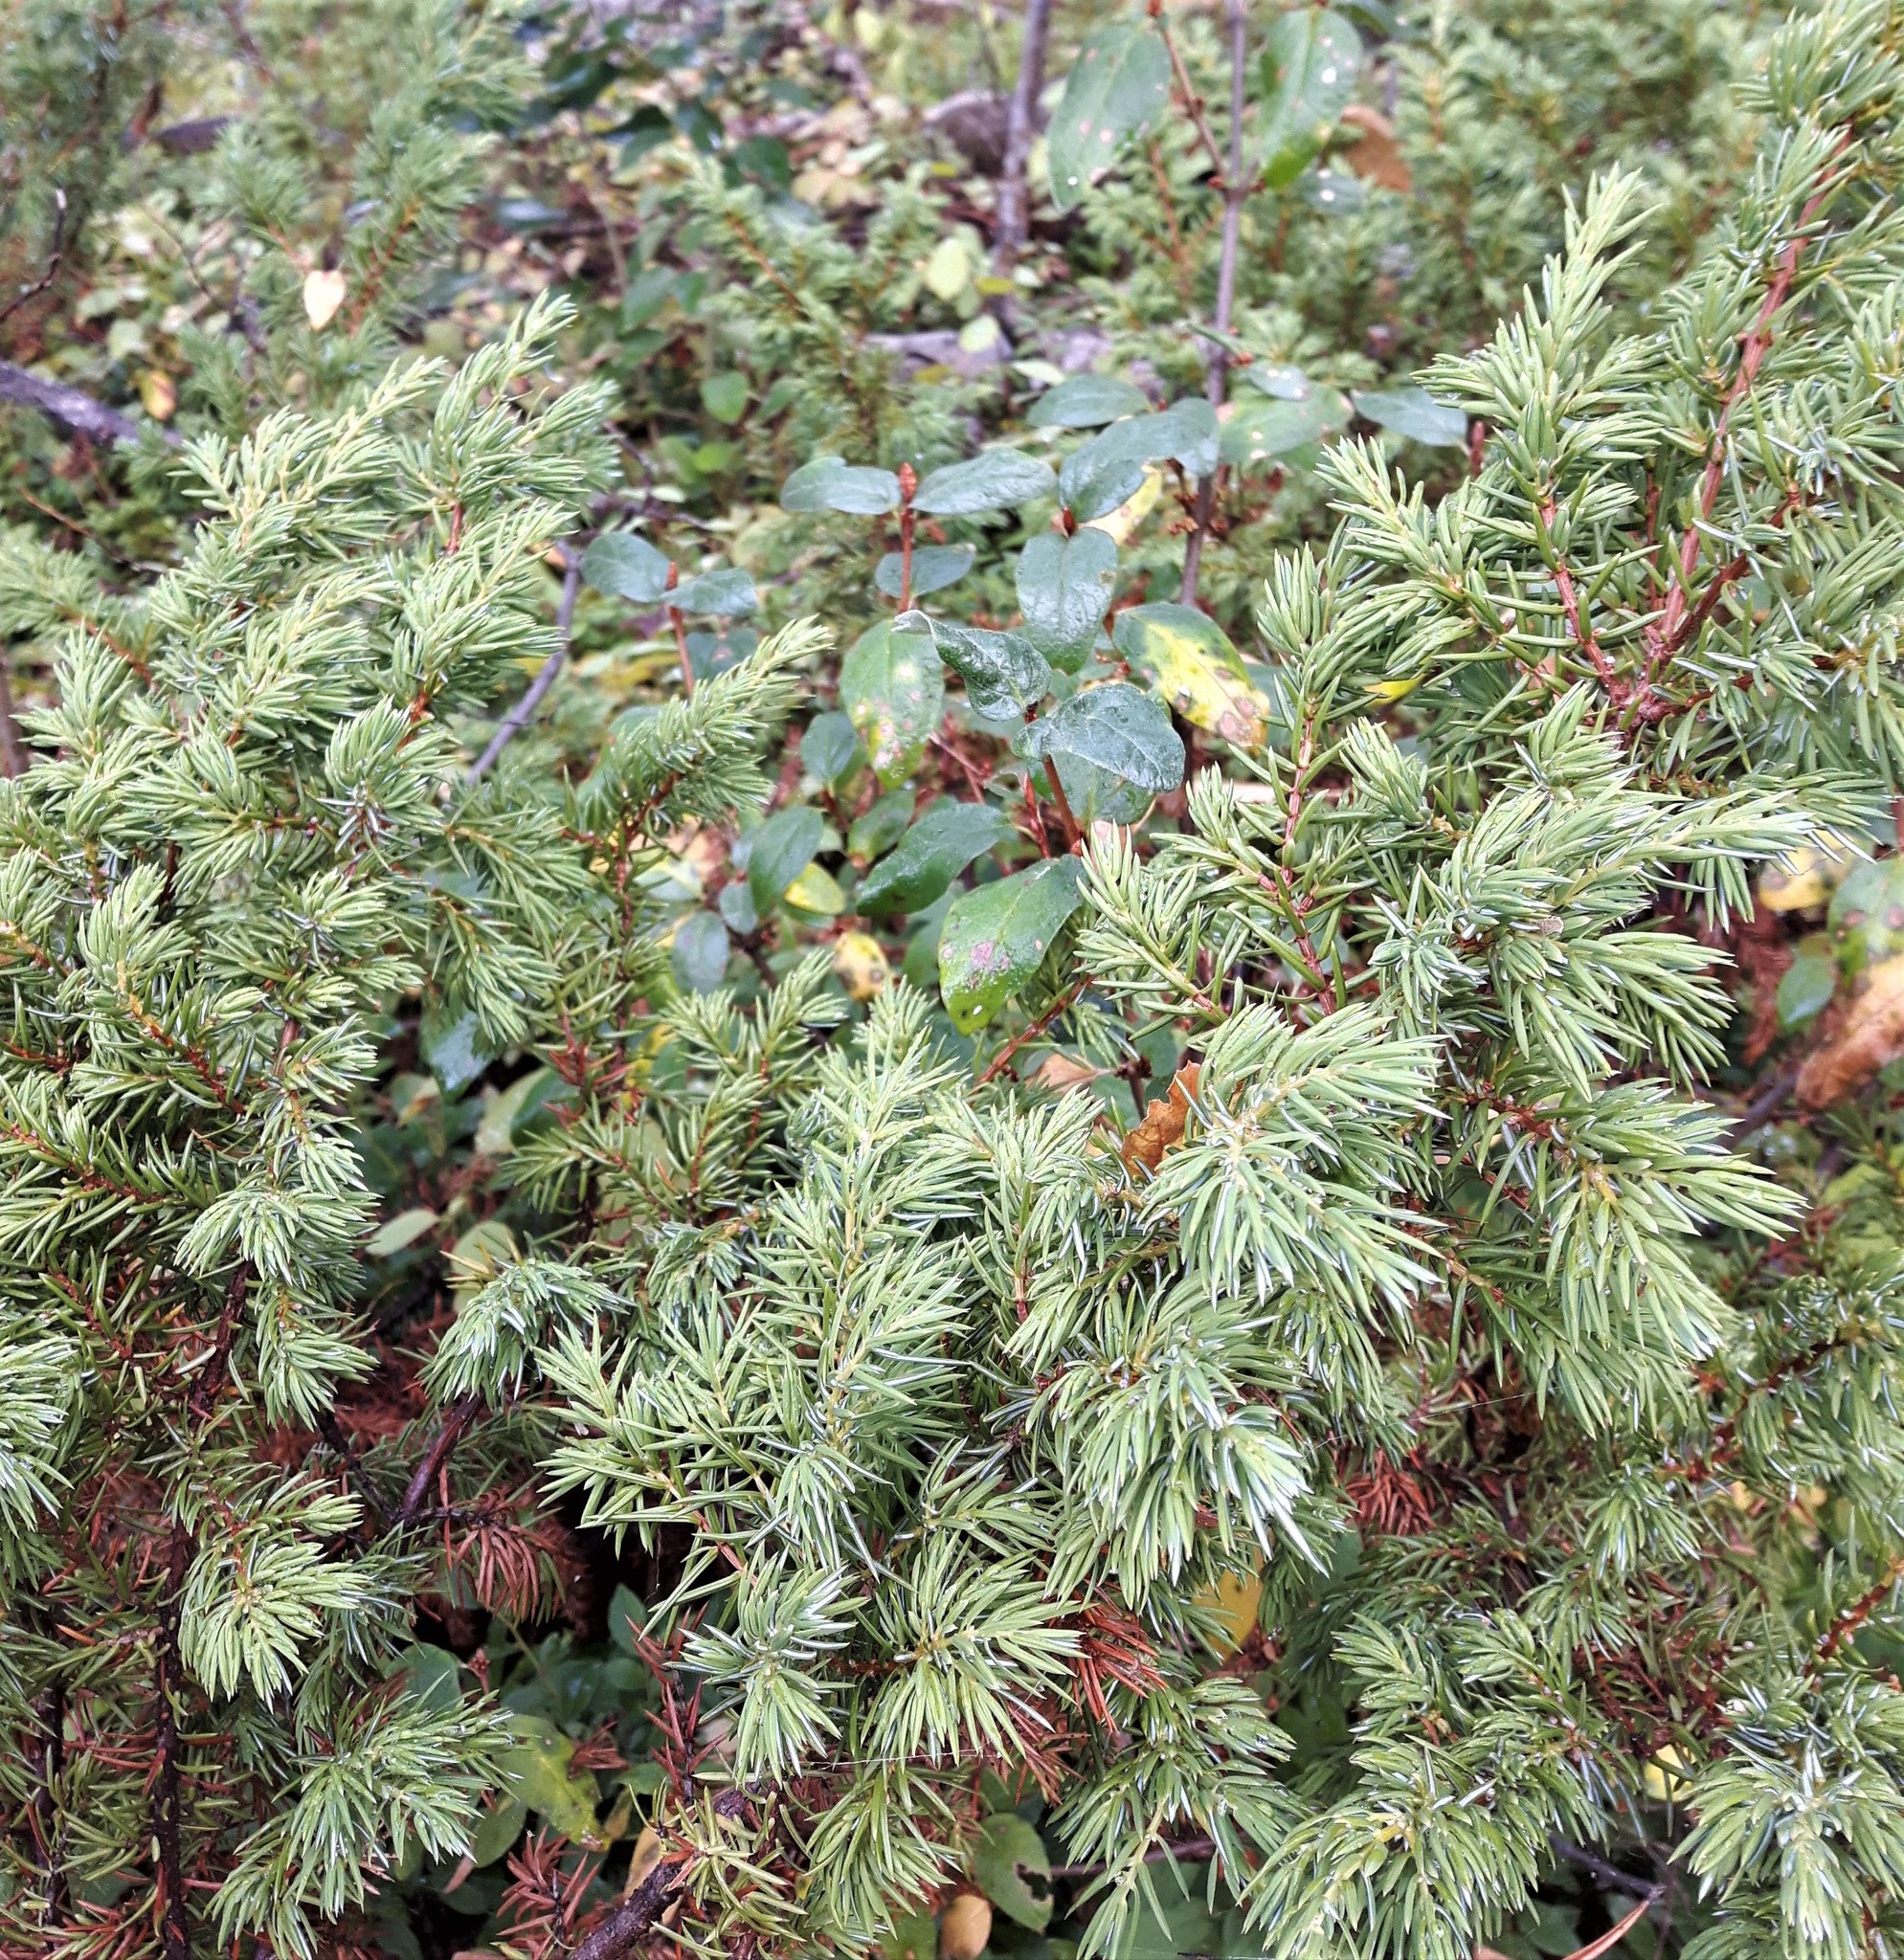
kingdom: Plantae
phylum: Tracheophyta
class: Pinopsida
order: Pinales
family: Cupressaceae
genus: Juniperus
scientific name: Juniperus communis
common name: Common juniper
